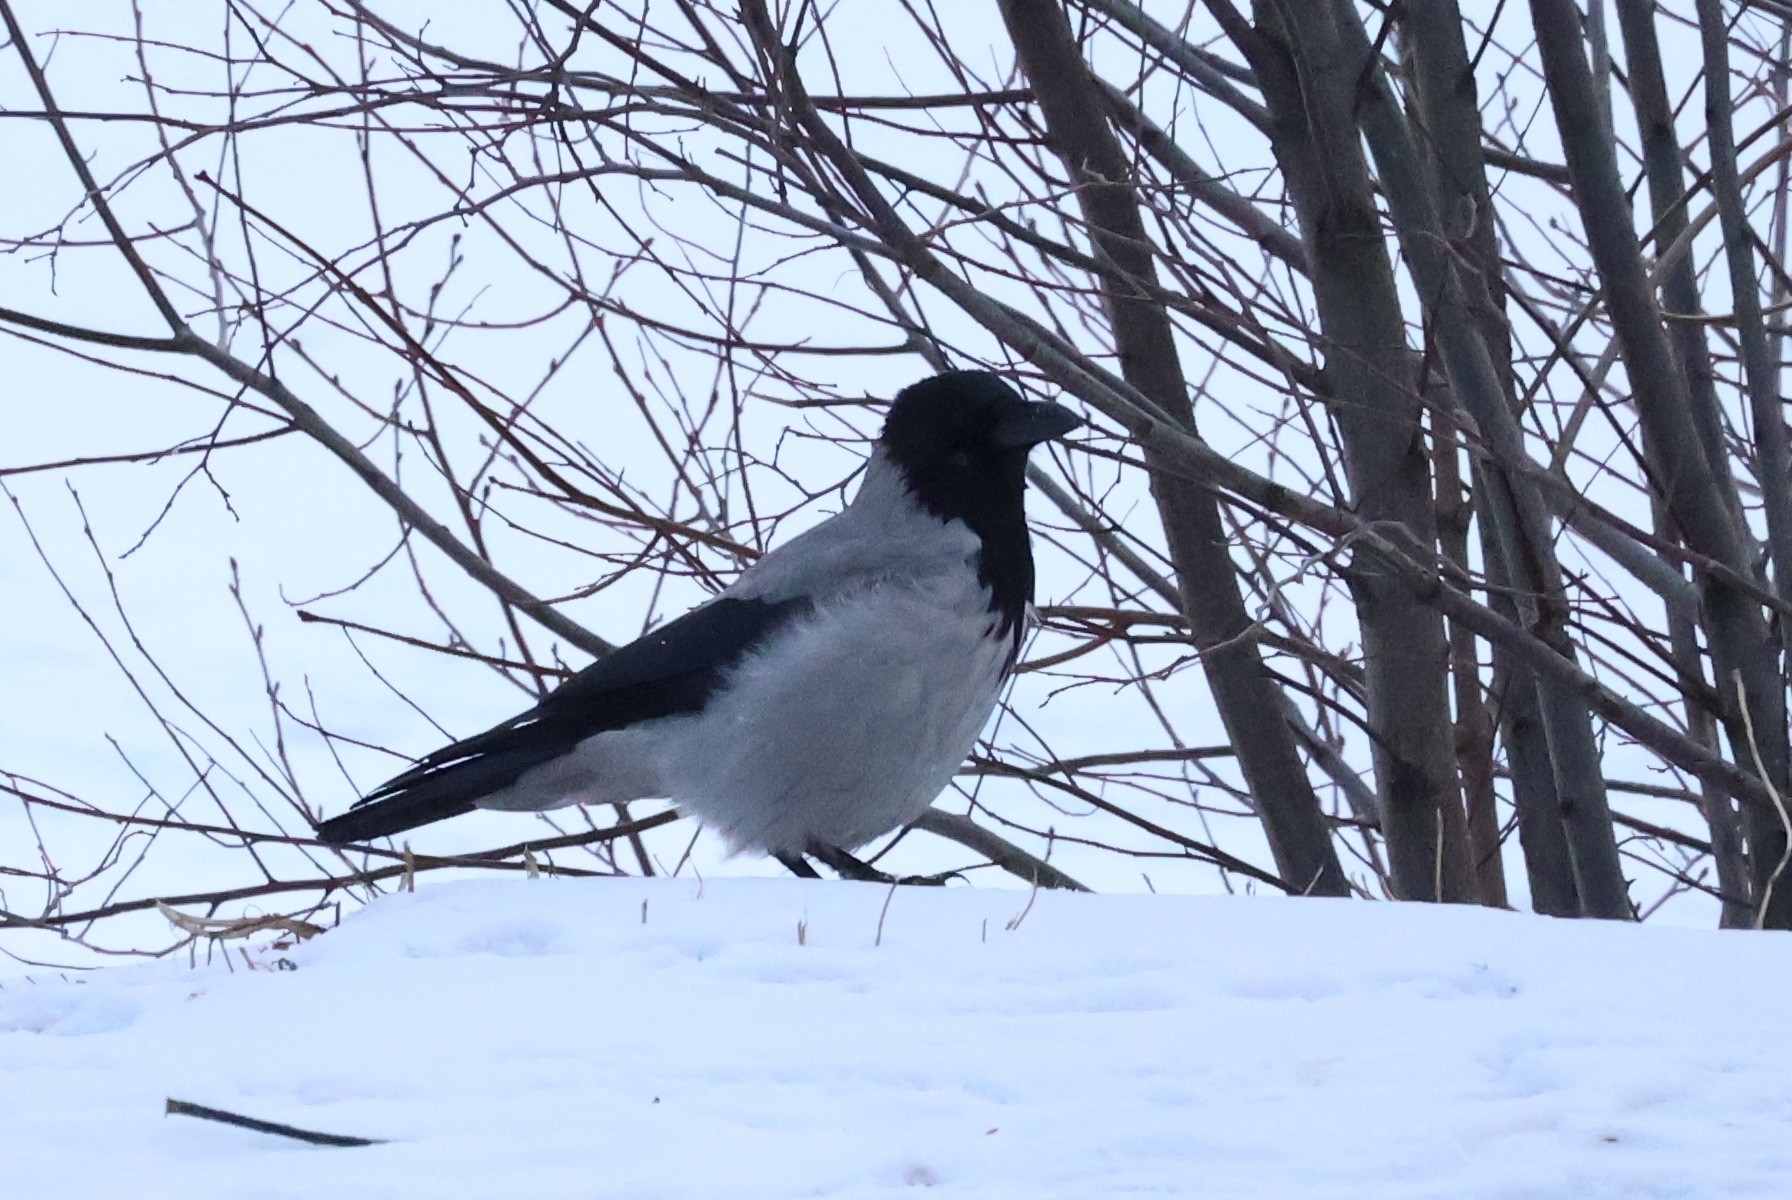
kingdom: Animalia
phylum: Chordata
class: Aves
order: Passeriformes
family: Corvidae
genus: Corvus
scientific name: Corvus cornix
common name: Hooded crow
